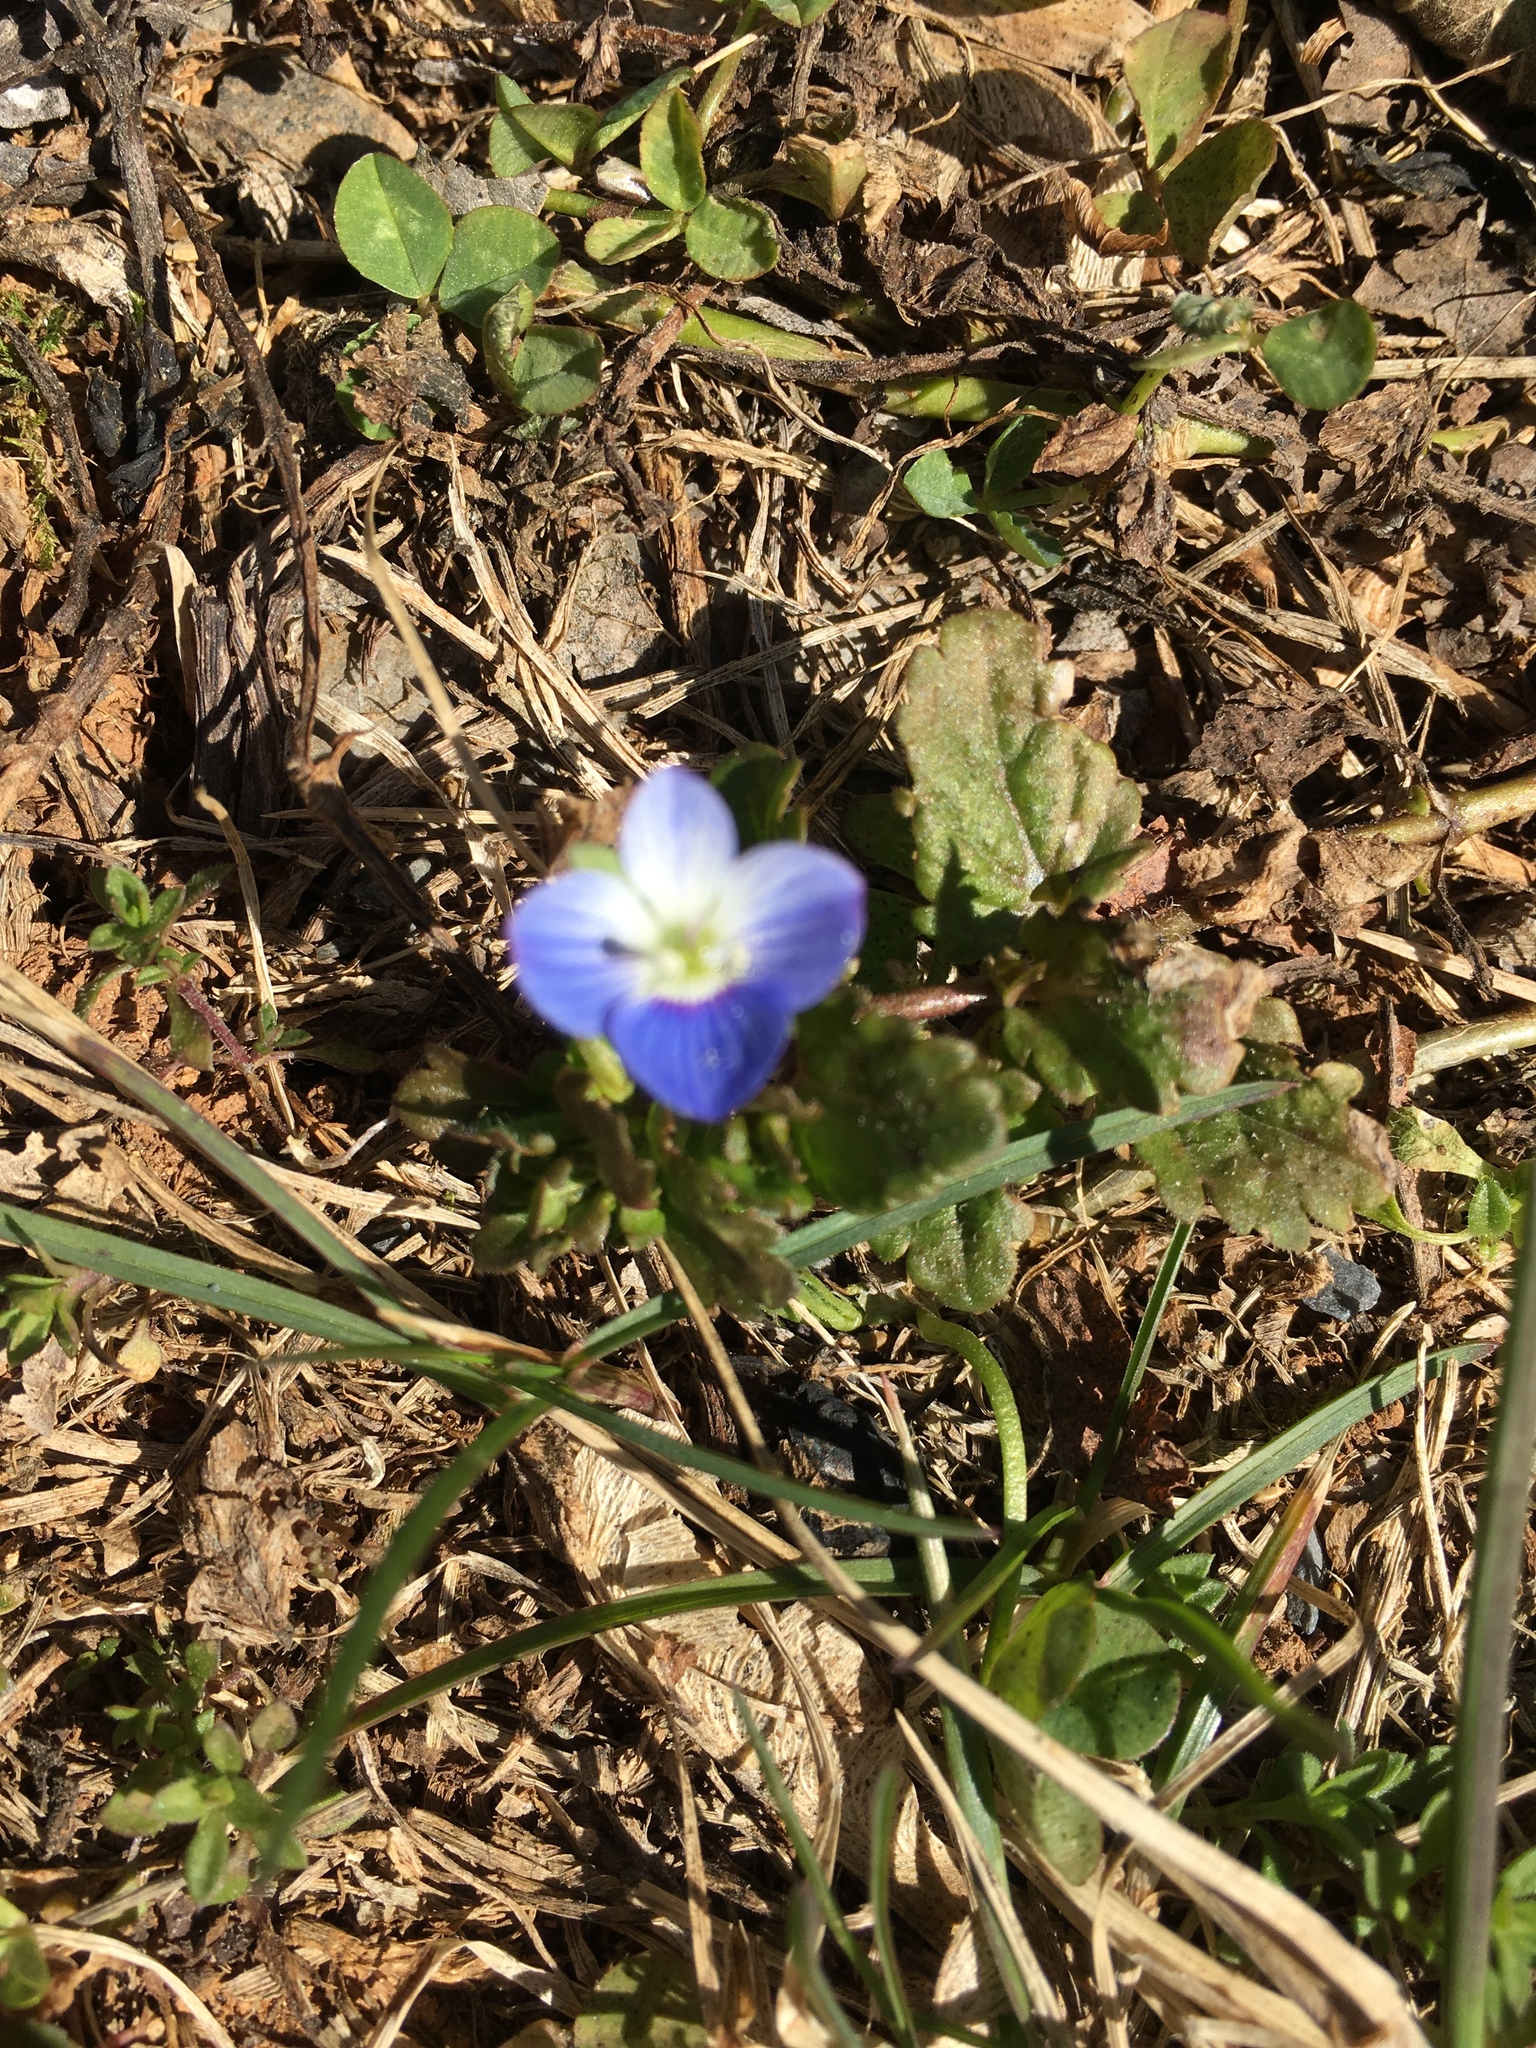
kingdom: Plantae
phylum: Tracheophyta
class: Magnoliopsida
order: Lamiales
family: Plantaginaceae
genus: Veronica
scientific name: Veronica persica
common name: Common field-speedwell
